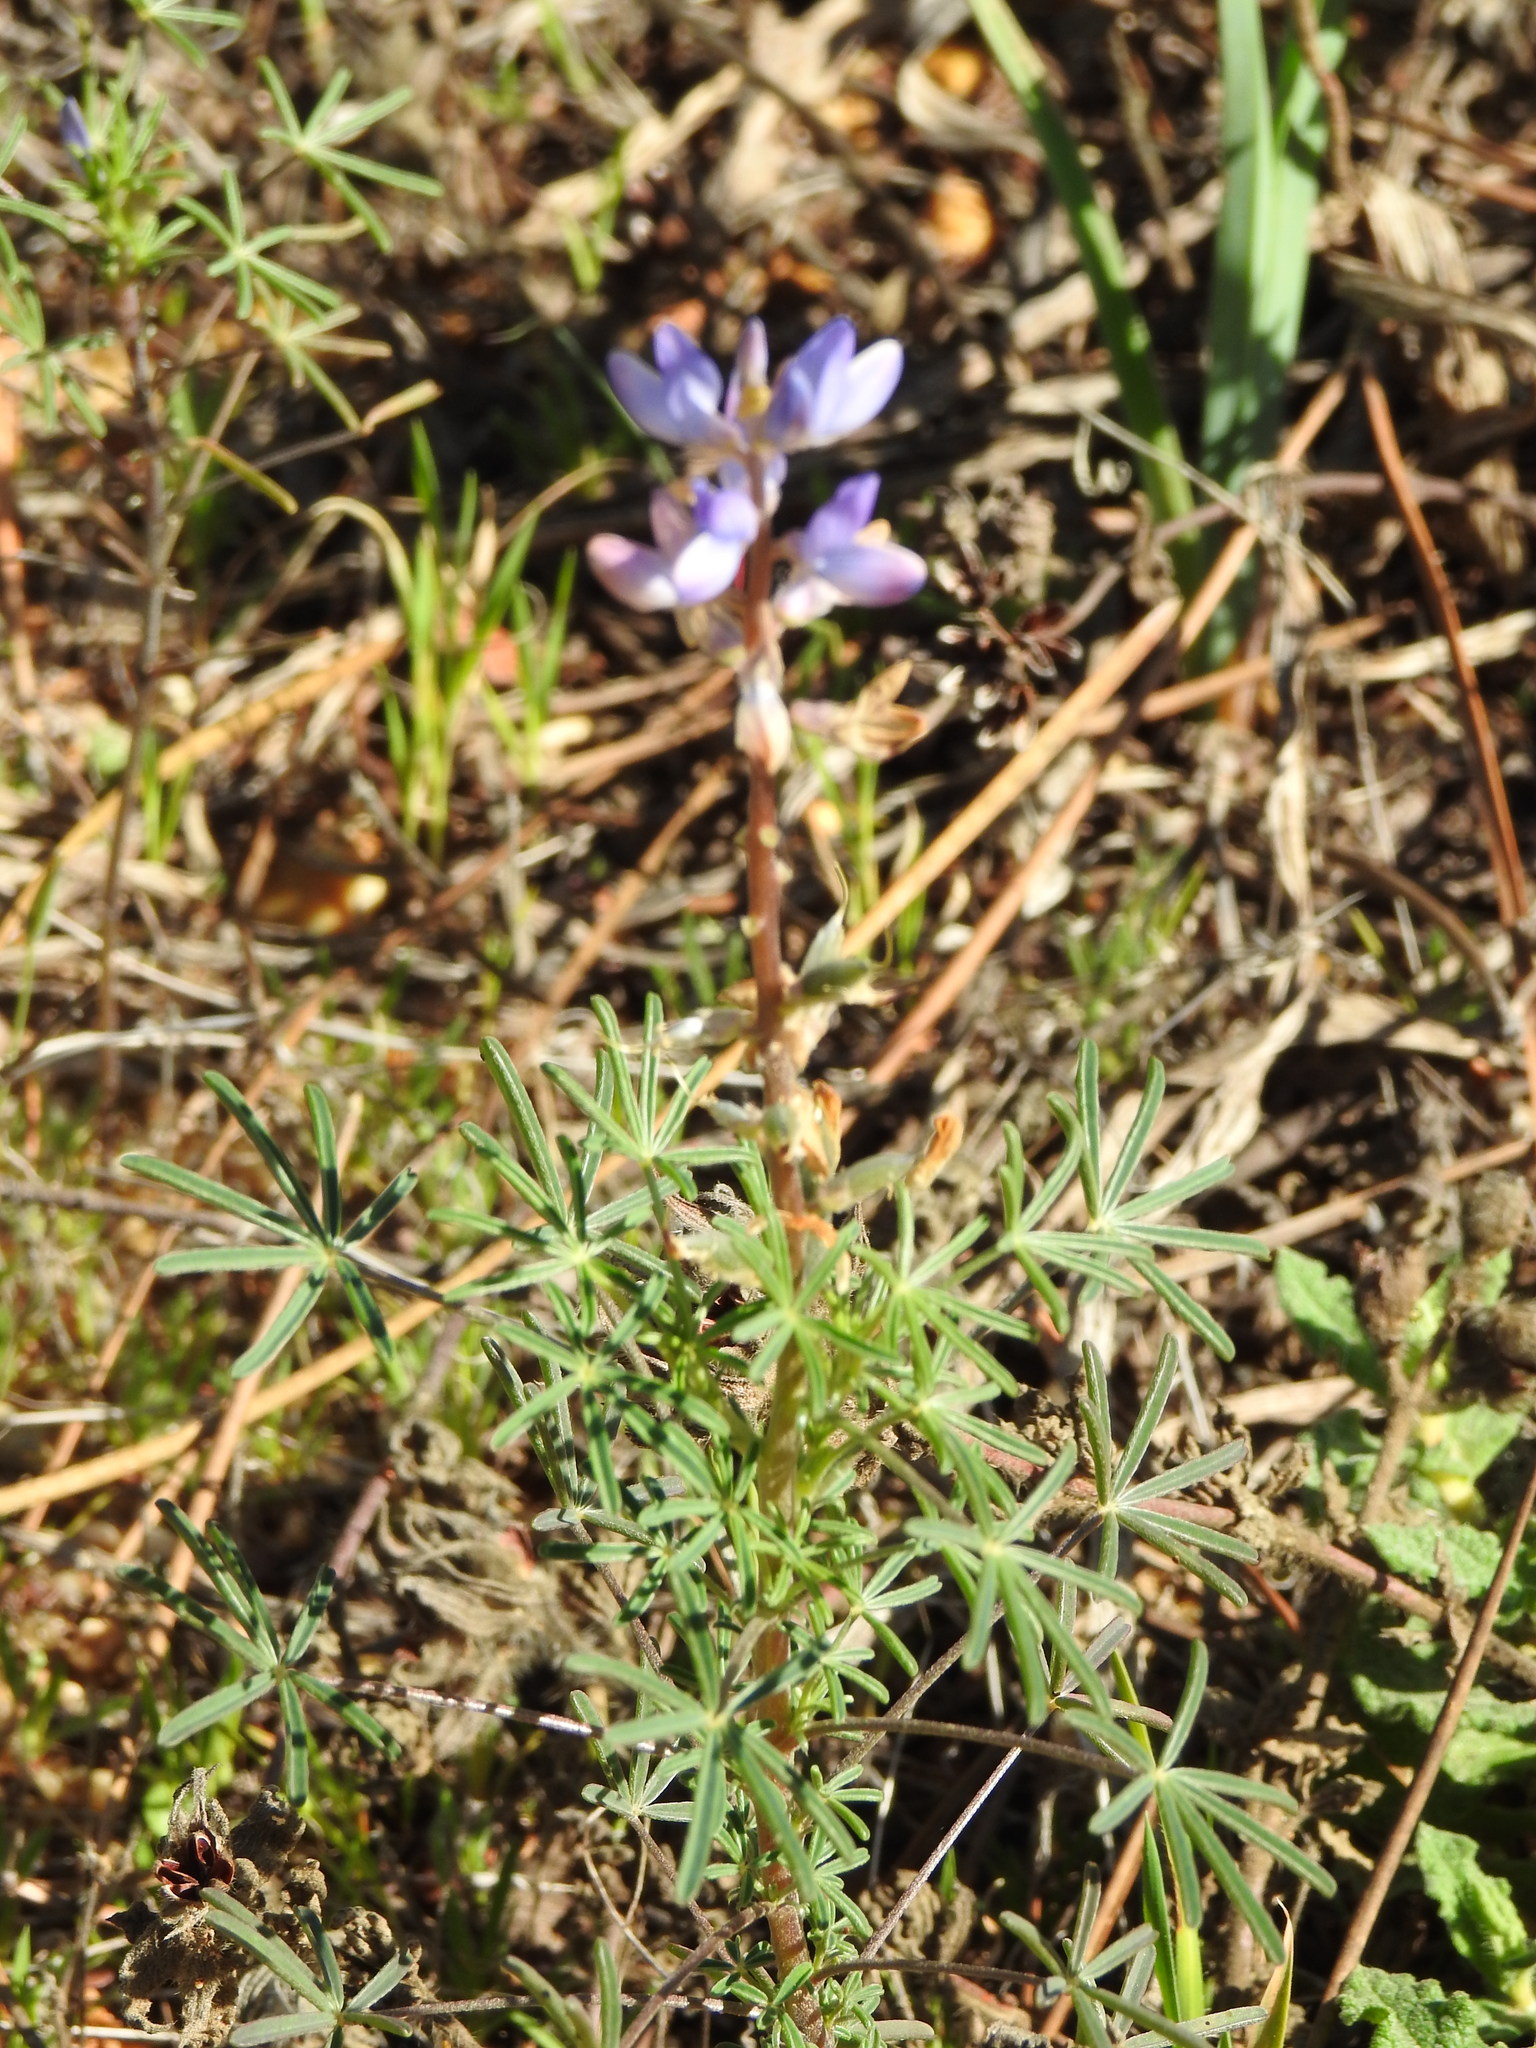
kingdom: Plantae
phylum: Tracheophyta
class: Magnoliopsida
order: Fabales
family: Fabaceae
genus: Lupinus
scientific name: Lupinus angustifolius
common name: Narrow-leaved lupin
